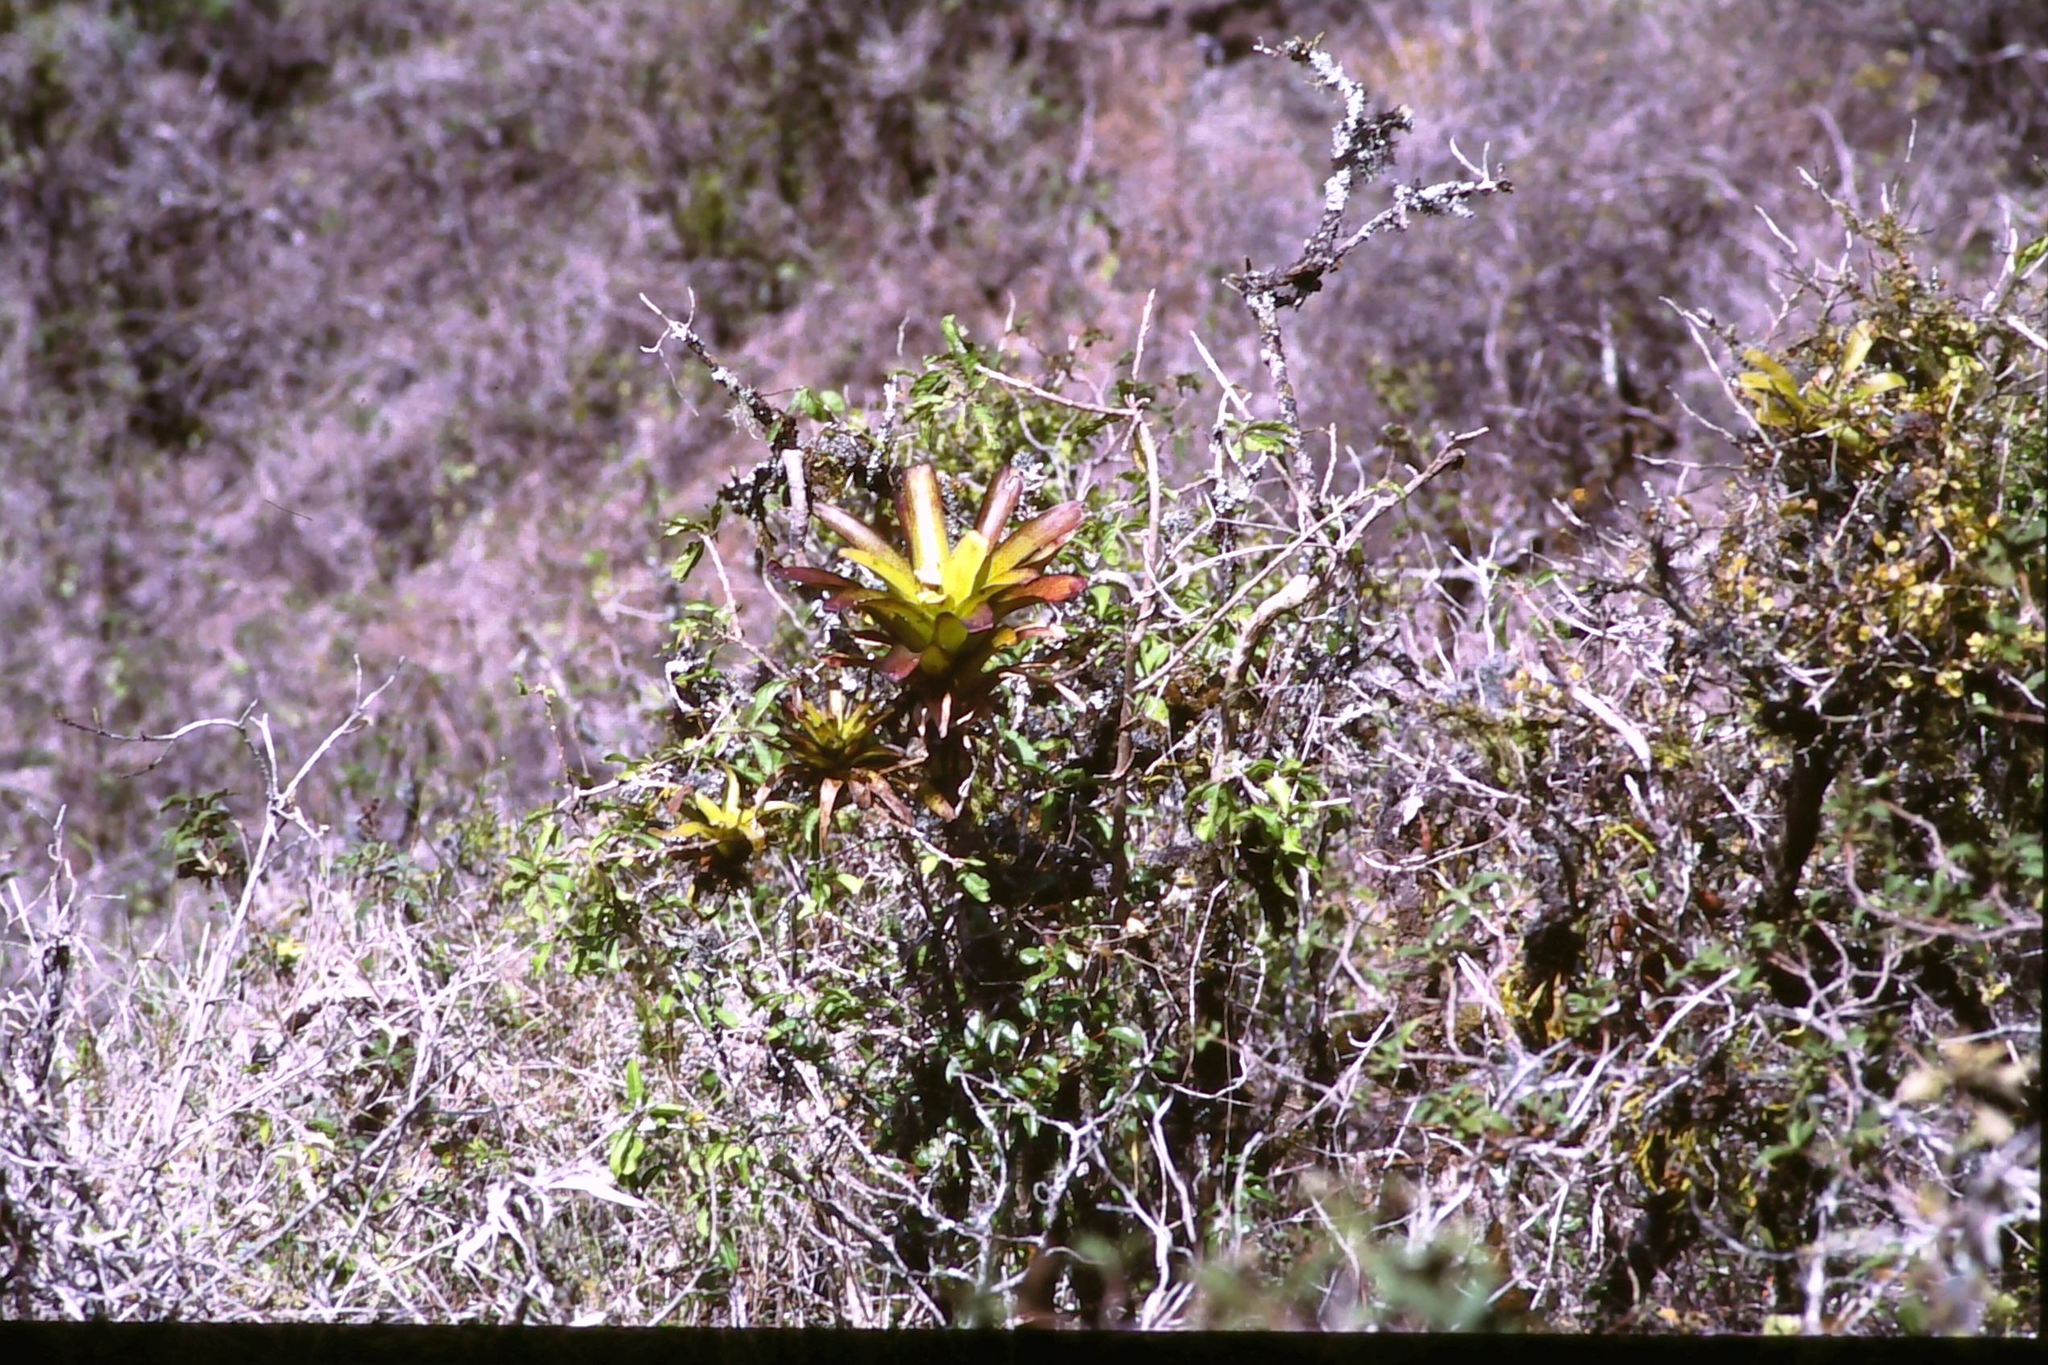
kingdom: Plantae
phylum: Tracheophyta
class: Liliopsida
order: Poales
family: Bromeliaceae
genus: Racinaea
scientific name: Racinaea insularis
